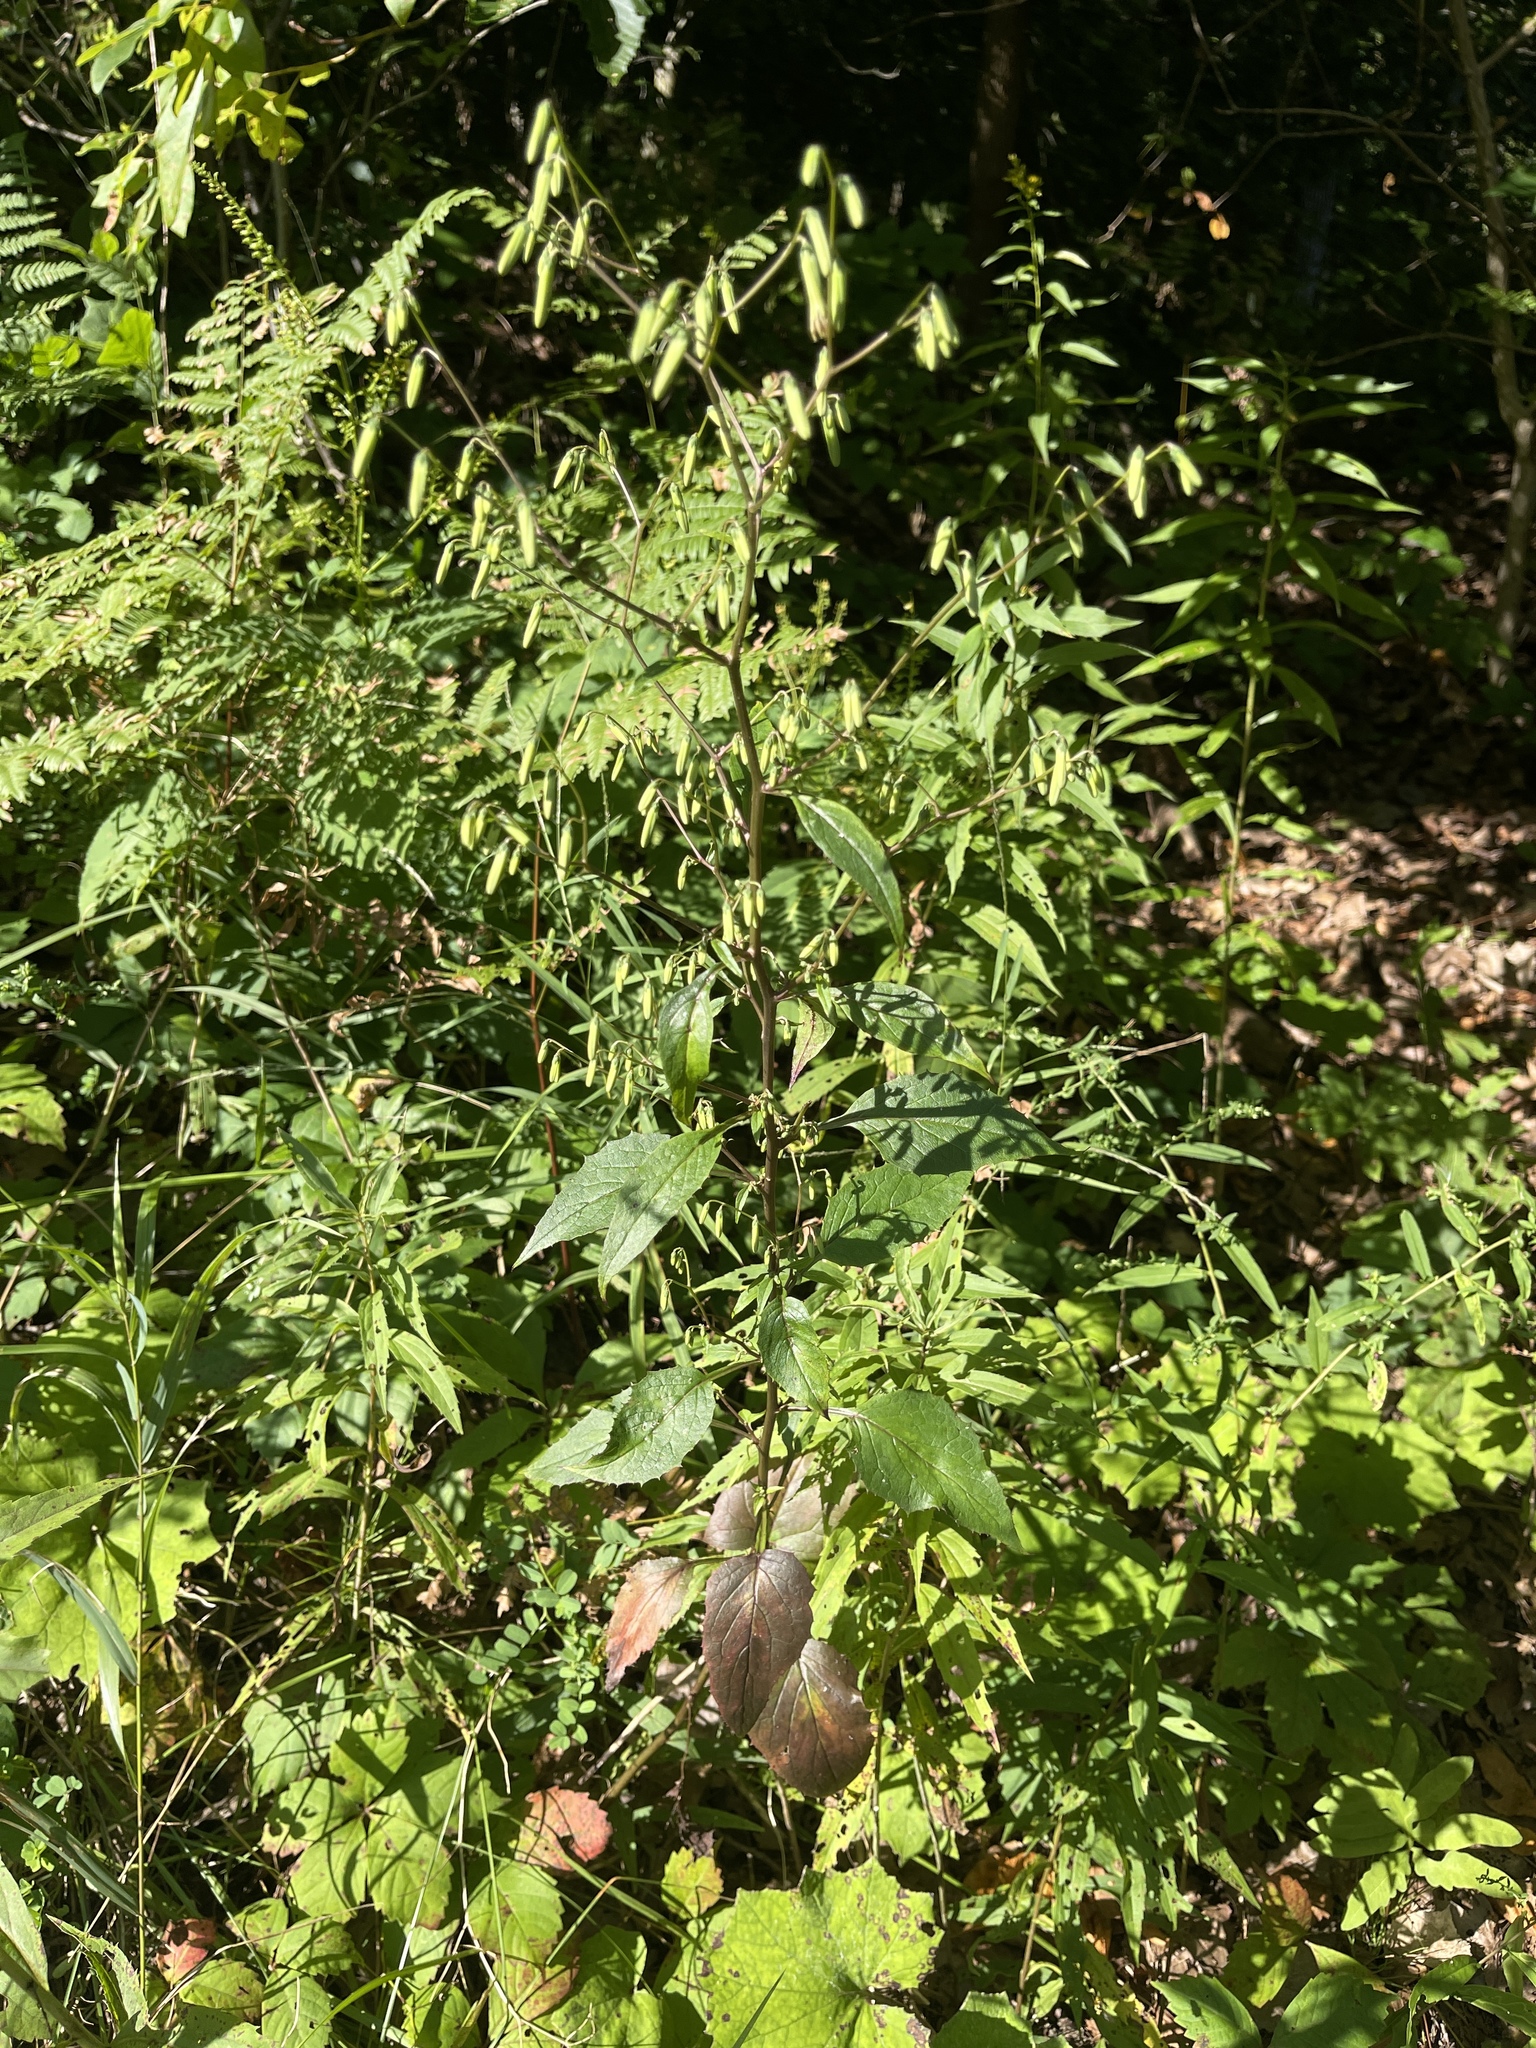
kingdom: Plantae
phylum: Tracheophyta
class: Magnoliopsida
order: Asterales
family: Asteraceae
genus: Nabalus
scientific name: Nabalus altissima
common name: Tall rattlesnakeroot
